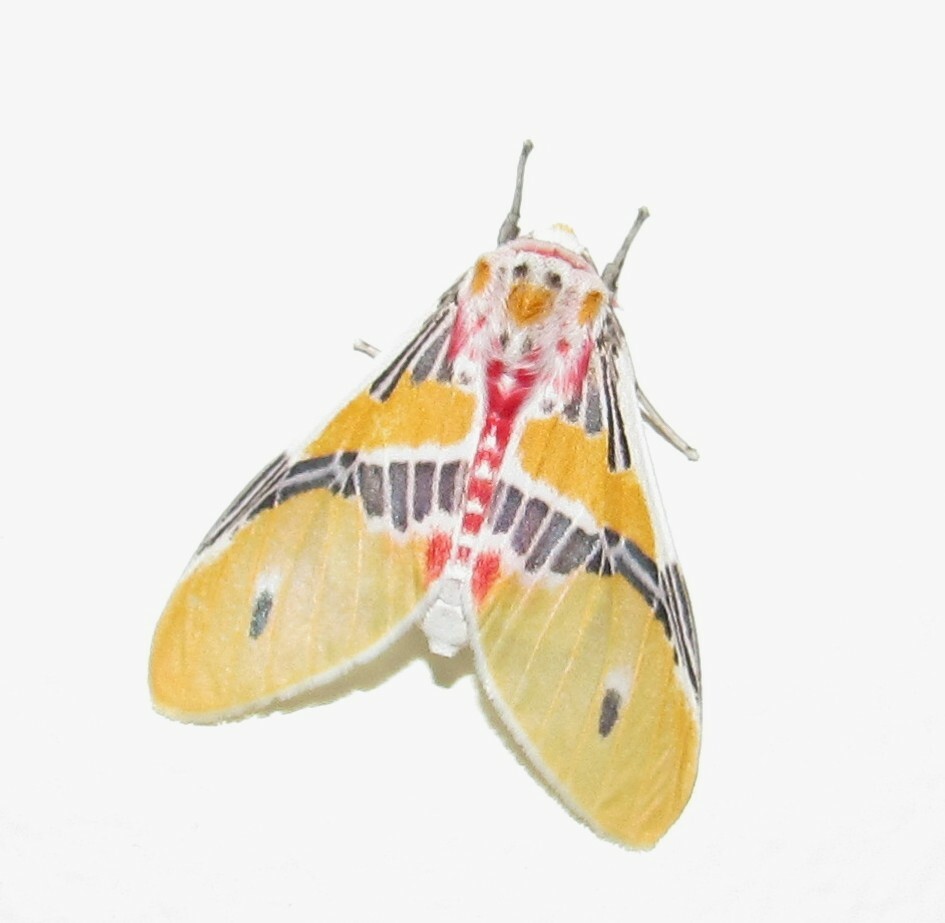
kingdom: Animalia
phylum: Arthropoda
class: Insecta
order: Lepidoptera
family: Erebidae
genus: Idalus
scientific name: Idalus agastus
